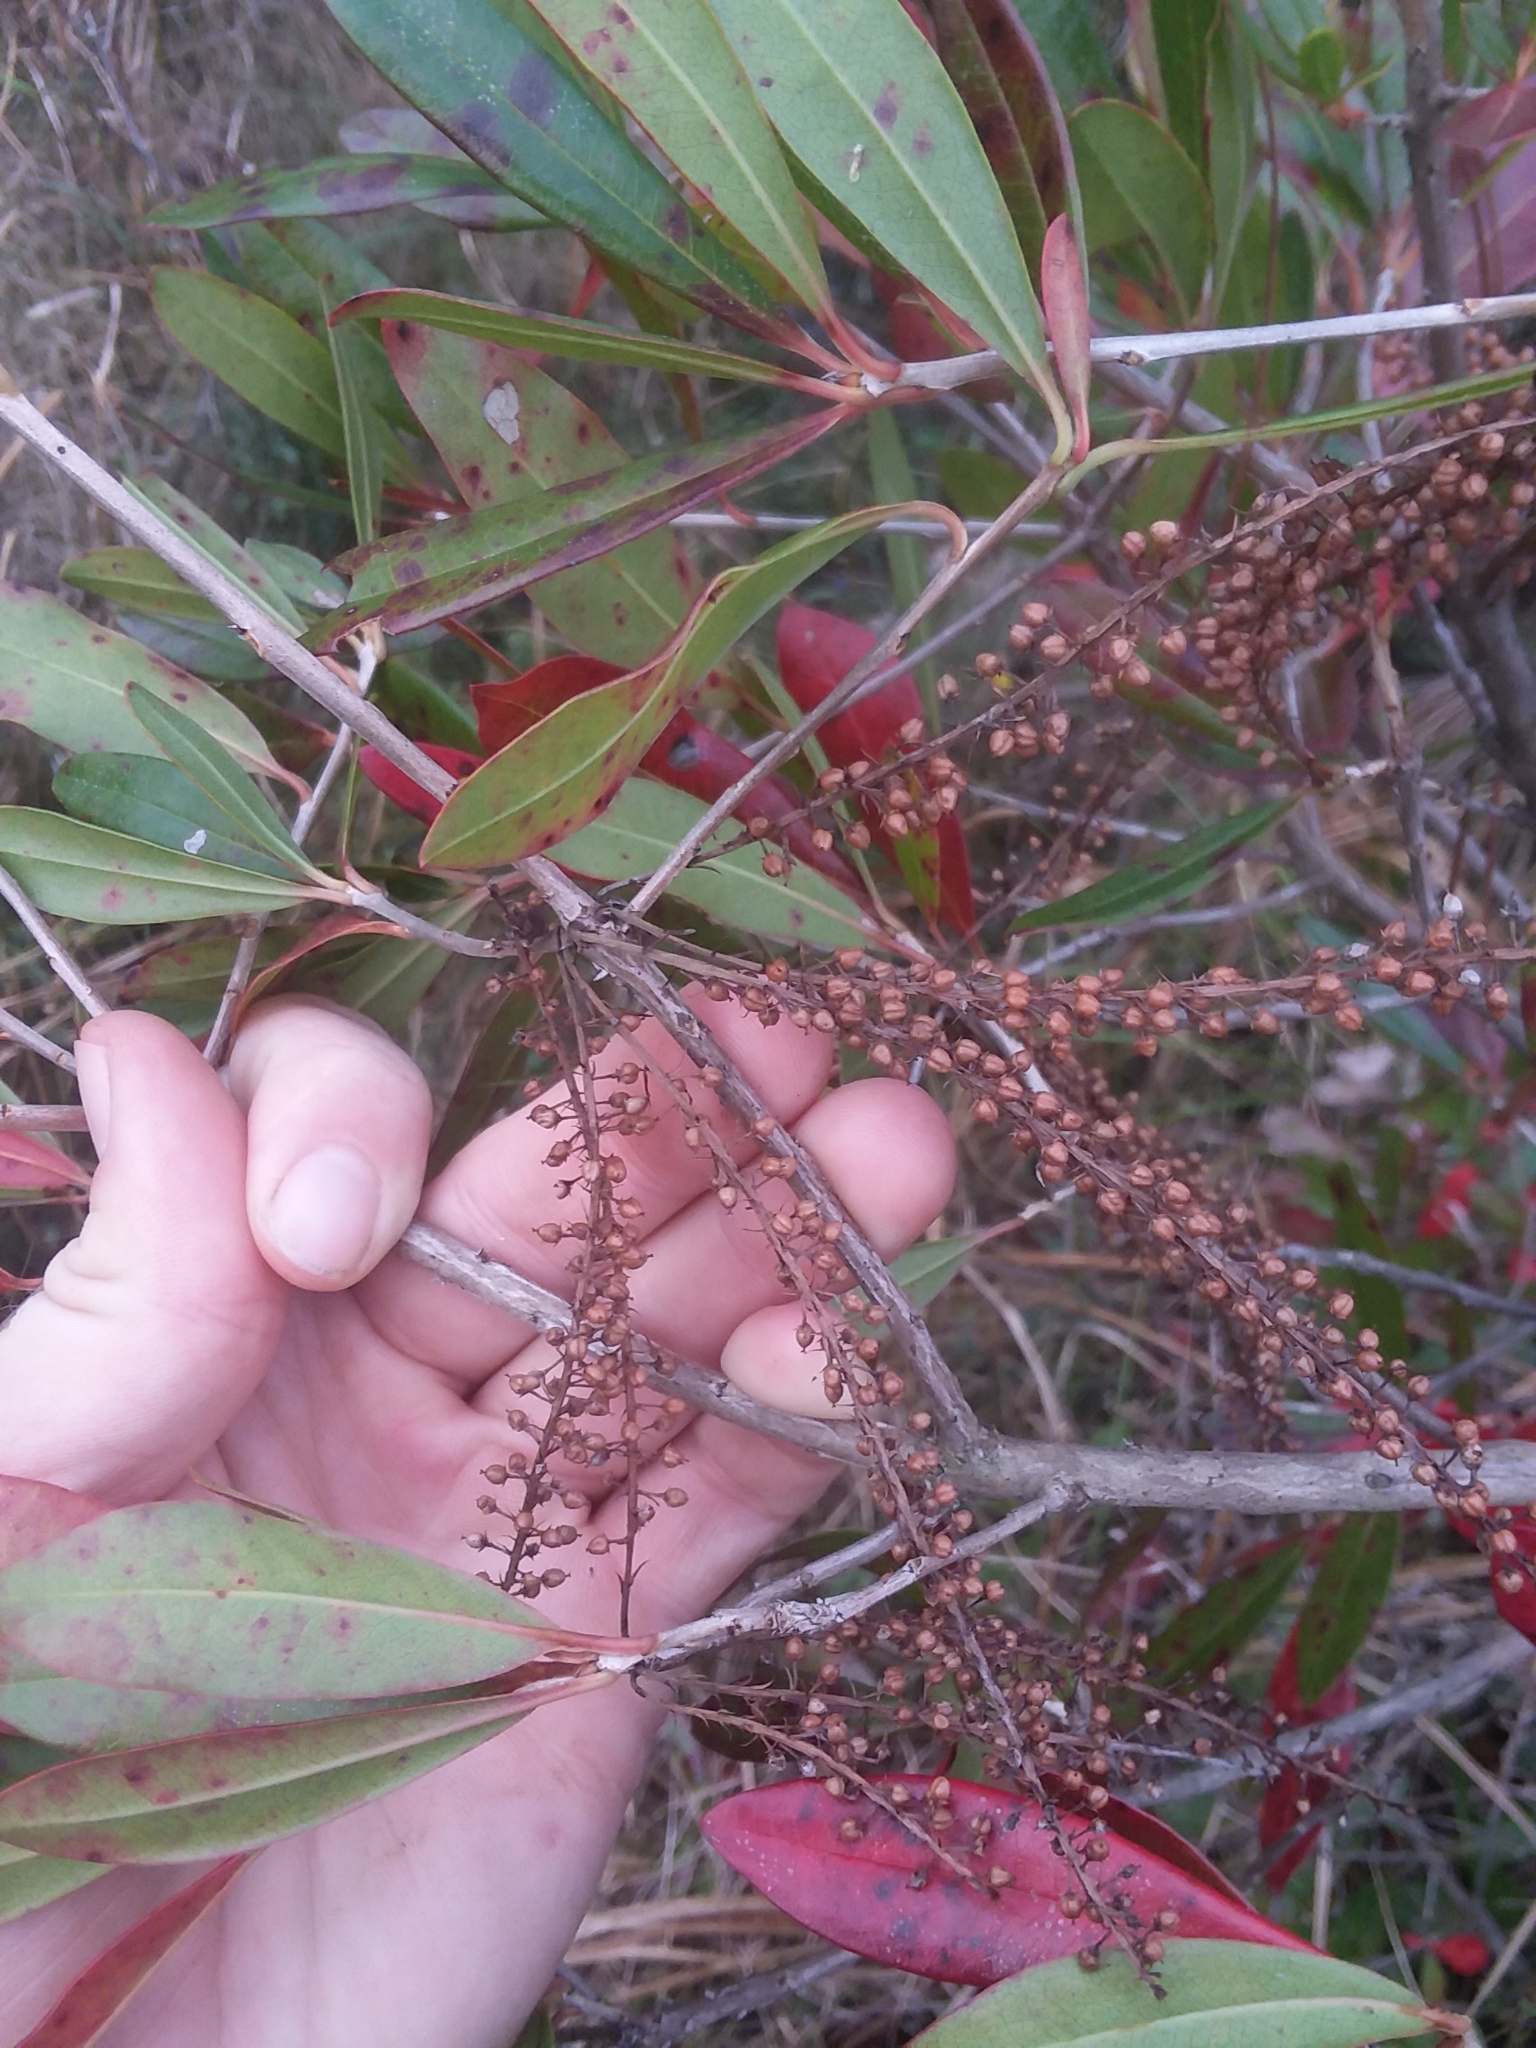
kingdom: Plantae
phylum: Tracheophyta
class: Magnoliopsida
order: Ericales
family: Cyrillaceae
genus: Cyrilla
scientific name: Cyrilla racemiflora
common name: Black titi
